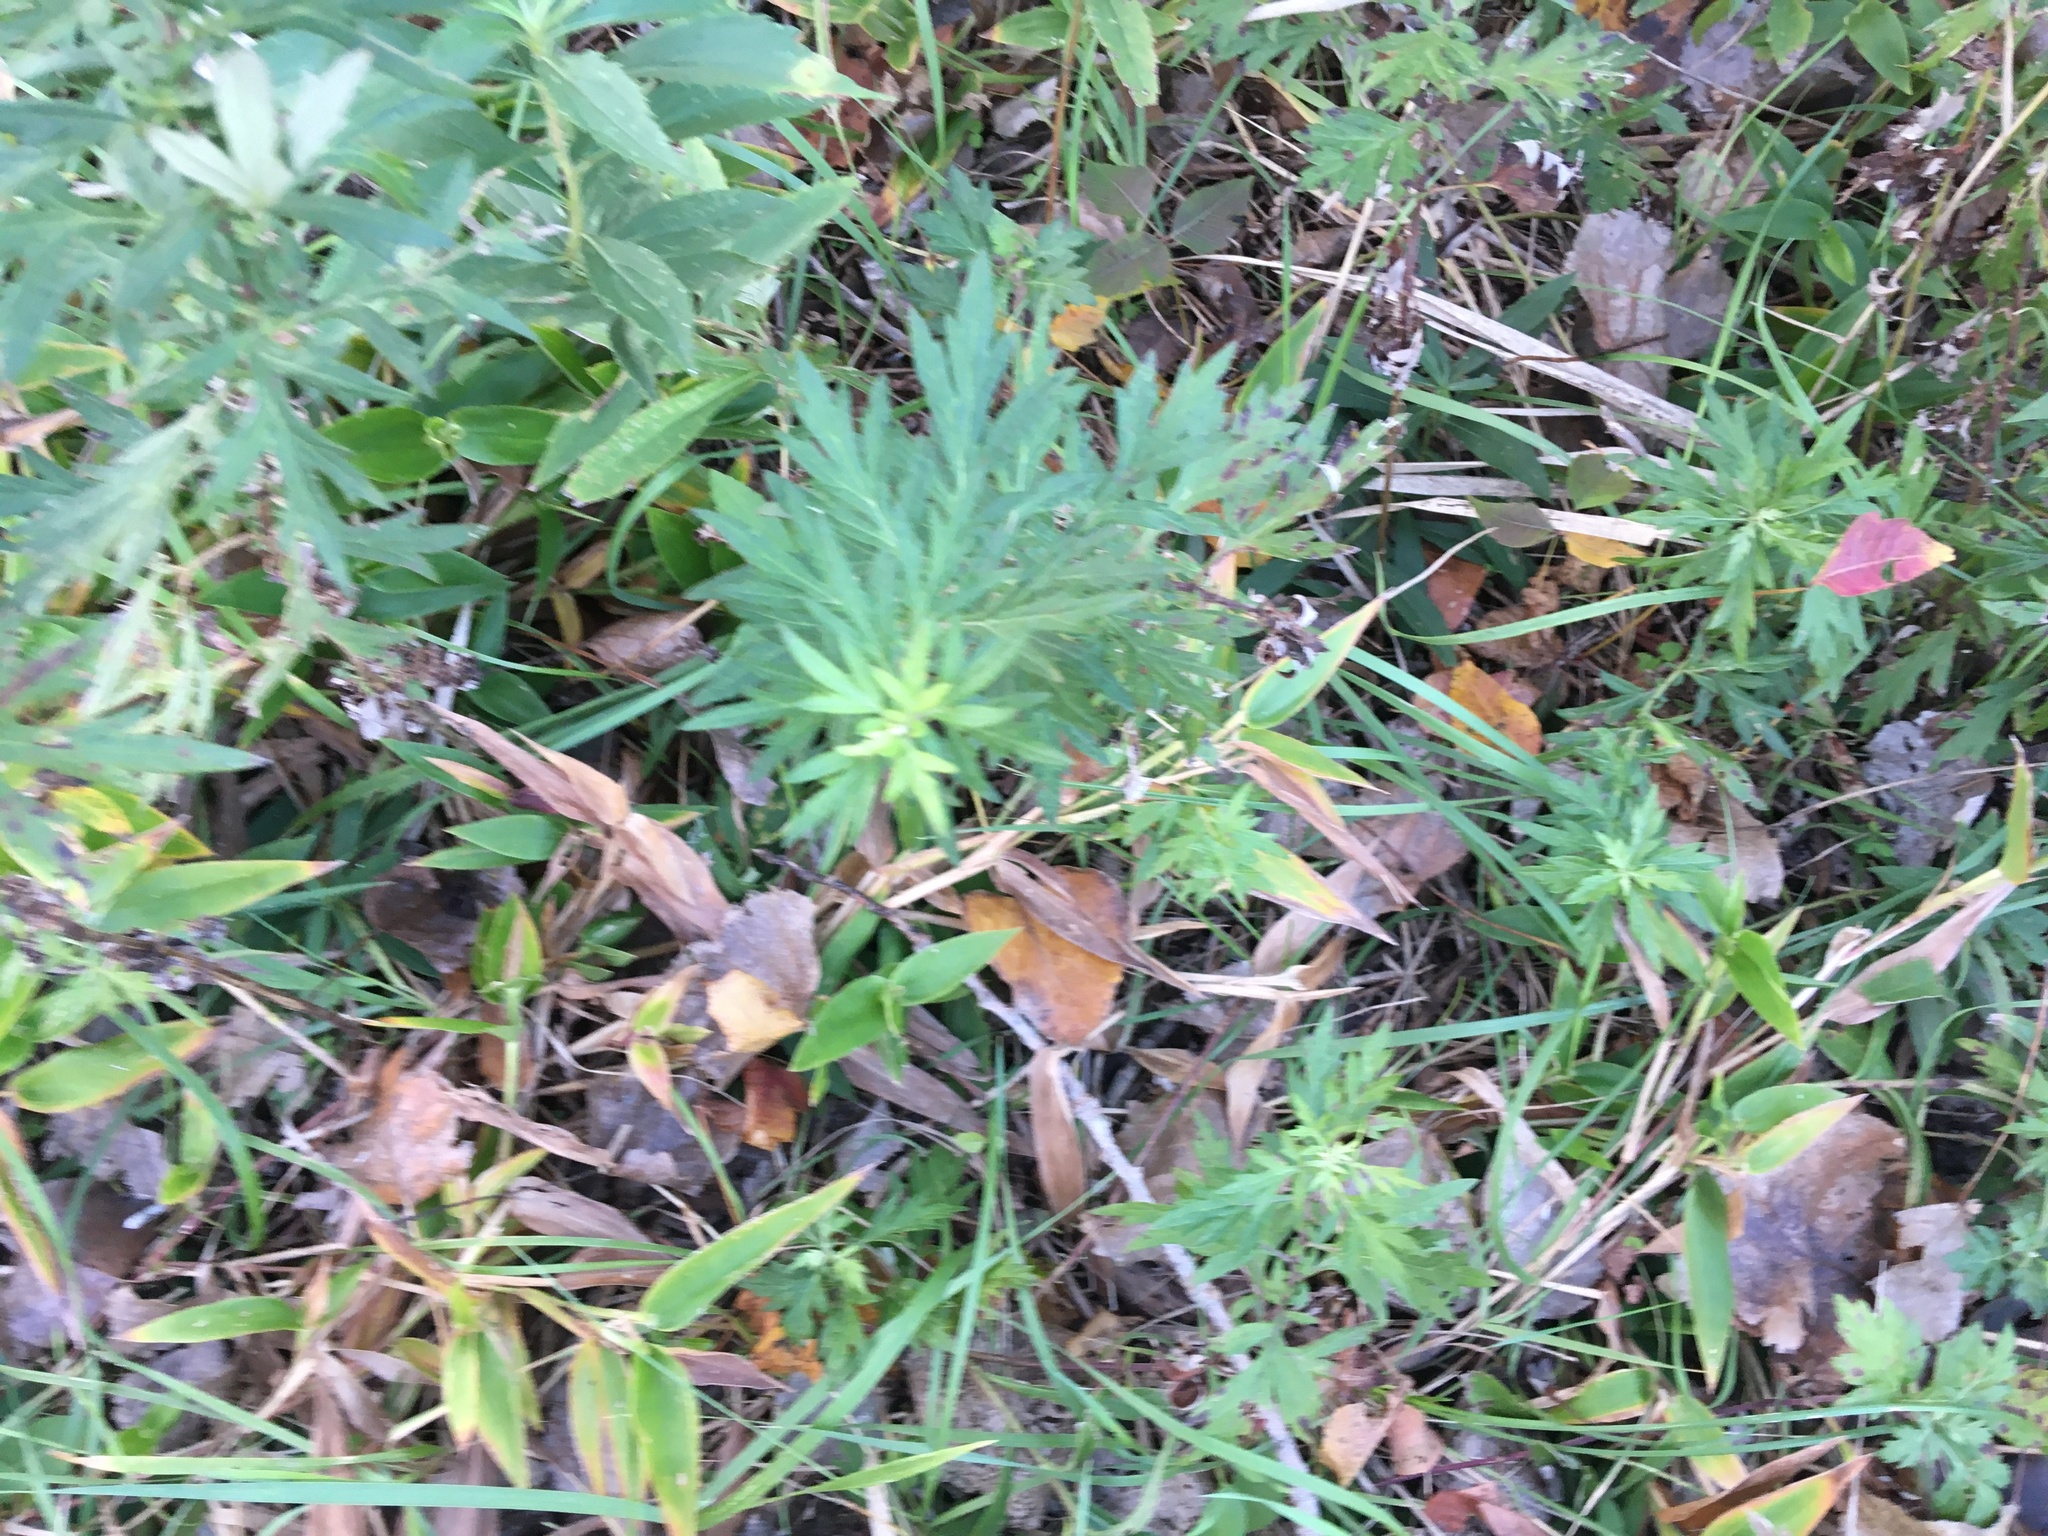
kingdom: Plantae
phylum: Tracheophyta
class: Magnoliopsida
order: Asterales
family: Asteraceae
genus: Artemisia
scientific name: Artemisia vulgaris
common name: Mugwort
